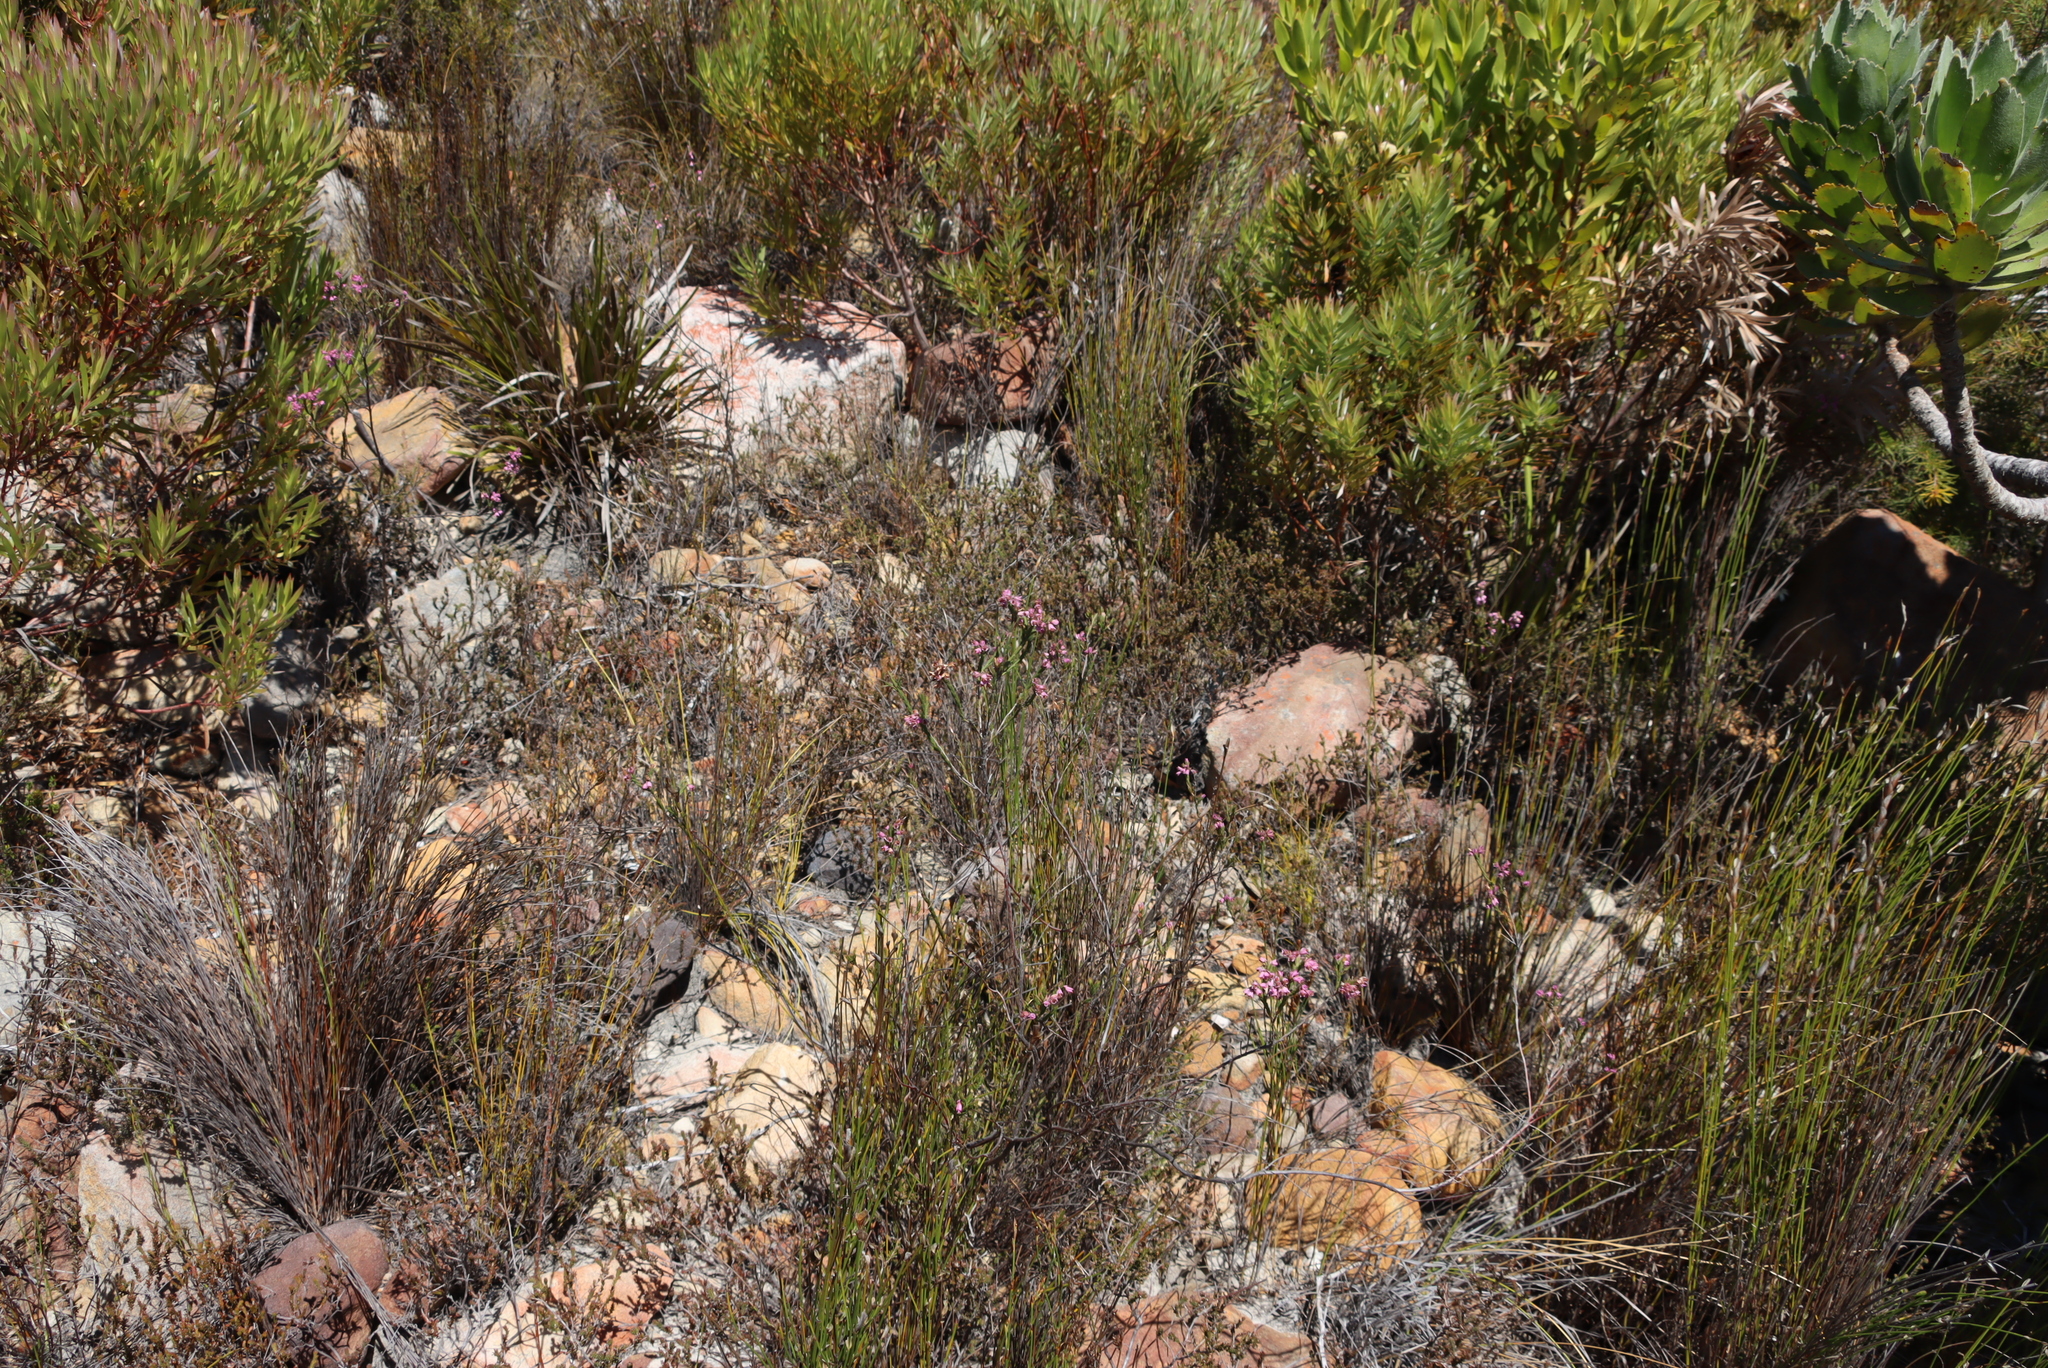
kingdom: Plantae
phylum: Tracheophyta
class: Magnoliopsida
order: Ericales
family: Ericaceae
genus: Erica
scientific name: Erica corifolia
